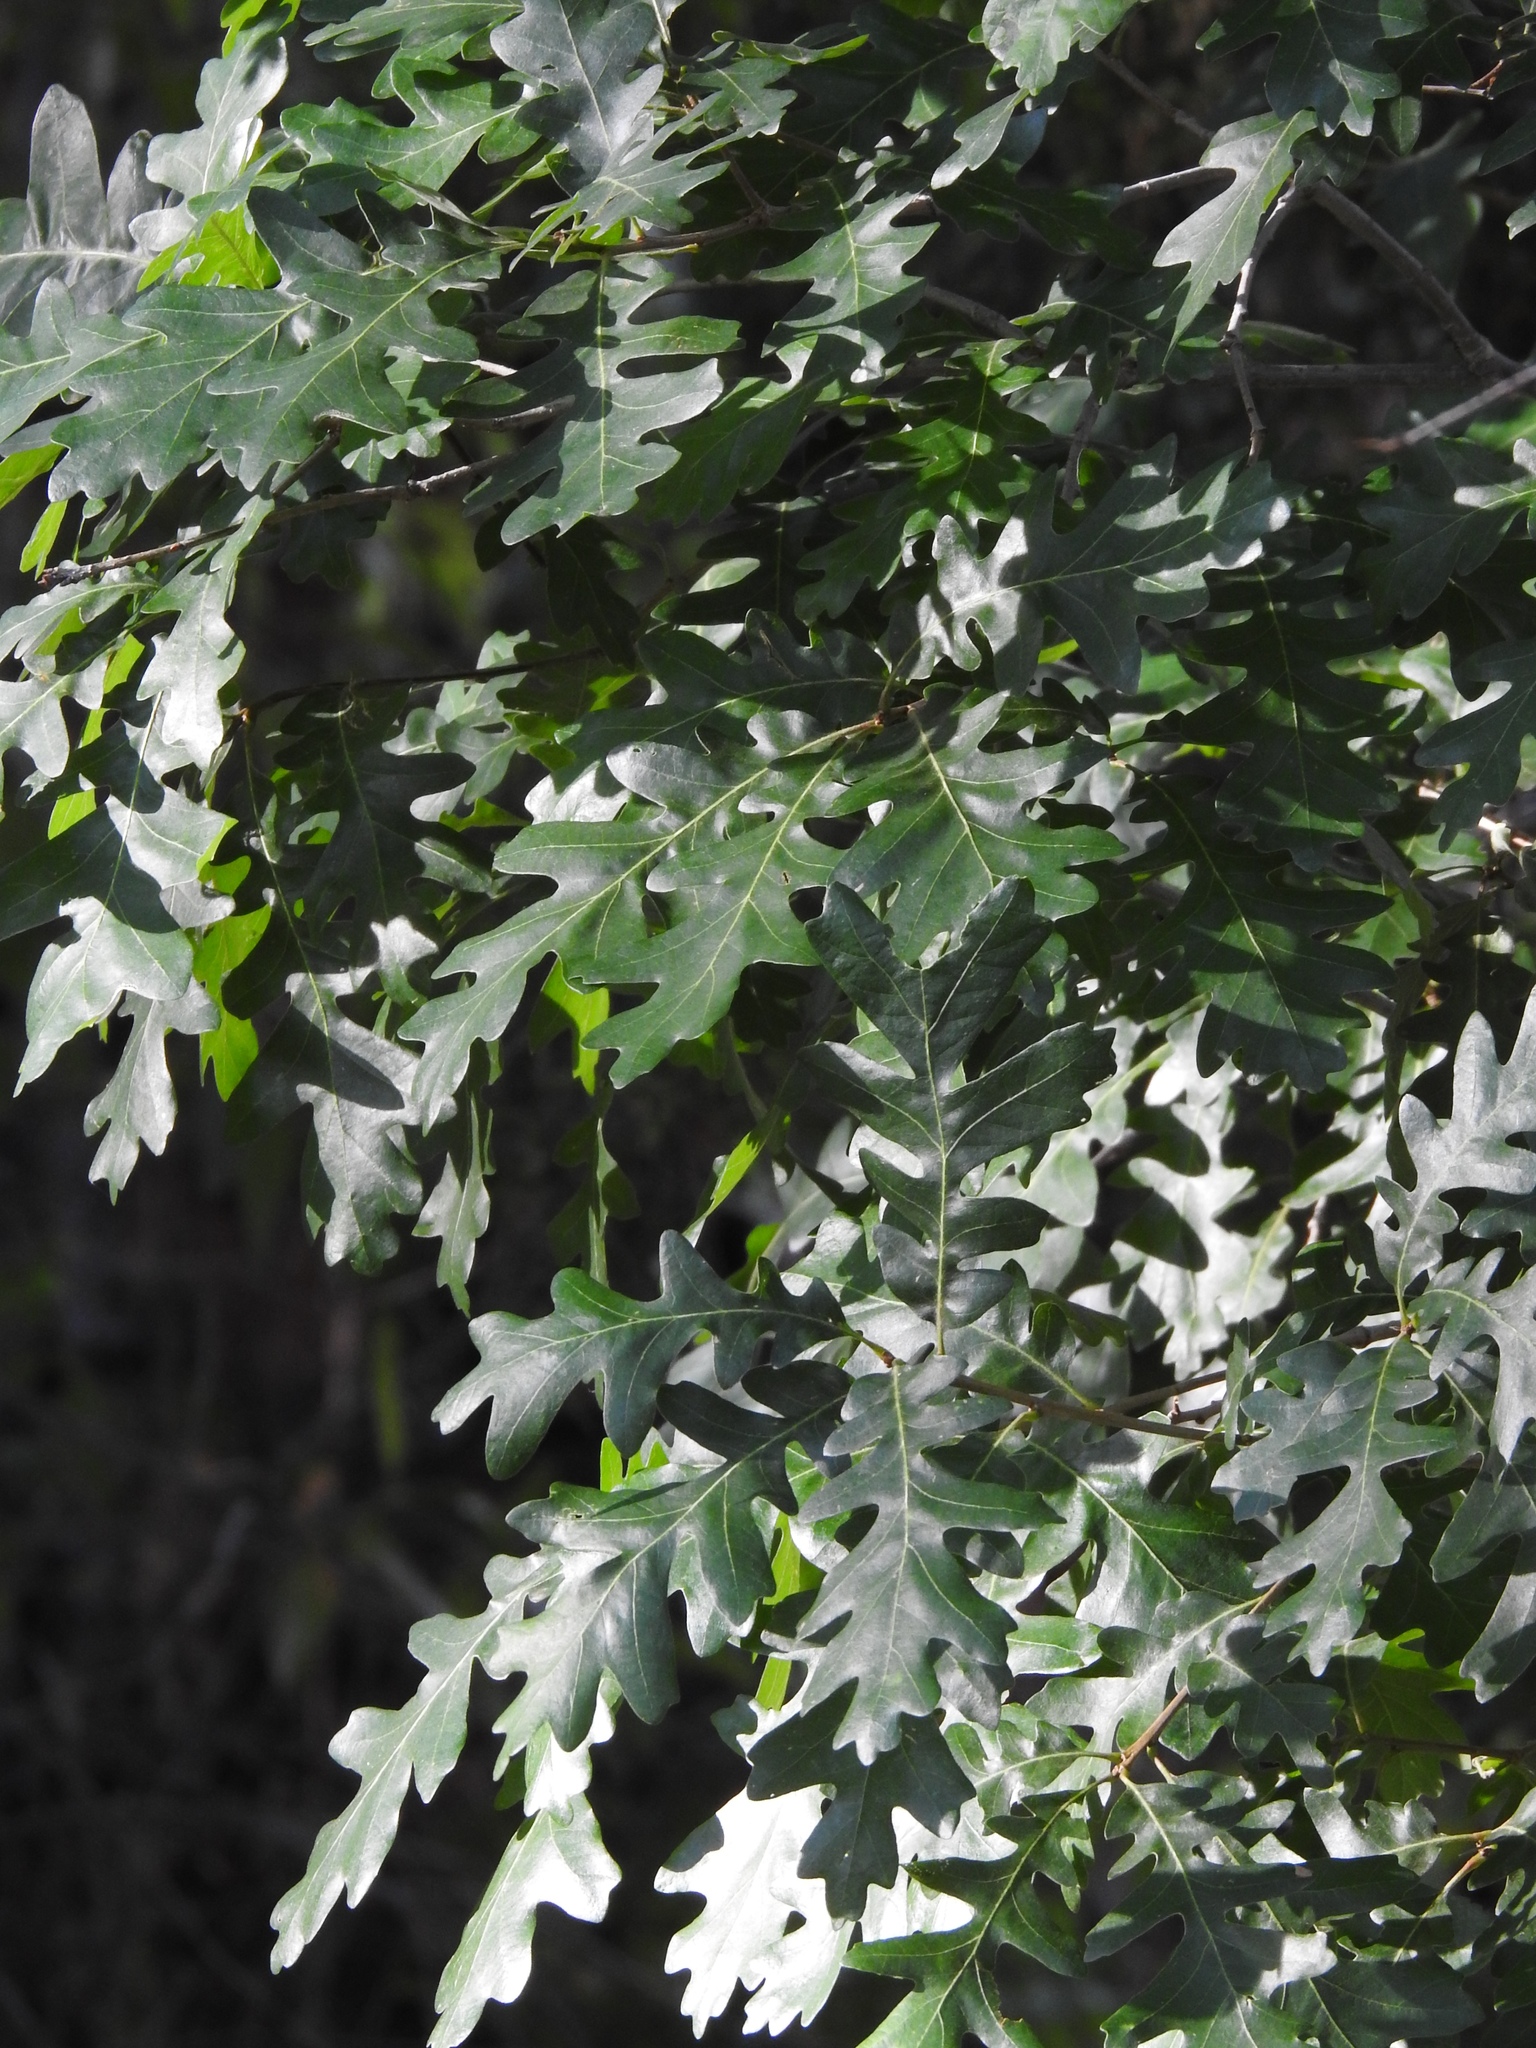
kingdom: Plantae
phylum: Tracheophyta
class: Magnoliopsida
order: Fagales
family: Fagaceae
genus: Quercus
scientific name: Quercus gambelii
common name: Gambel oak
